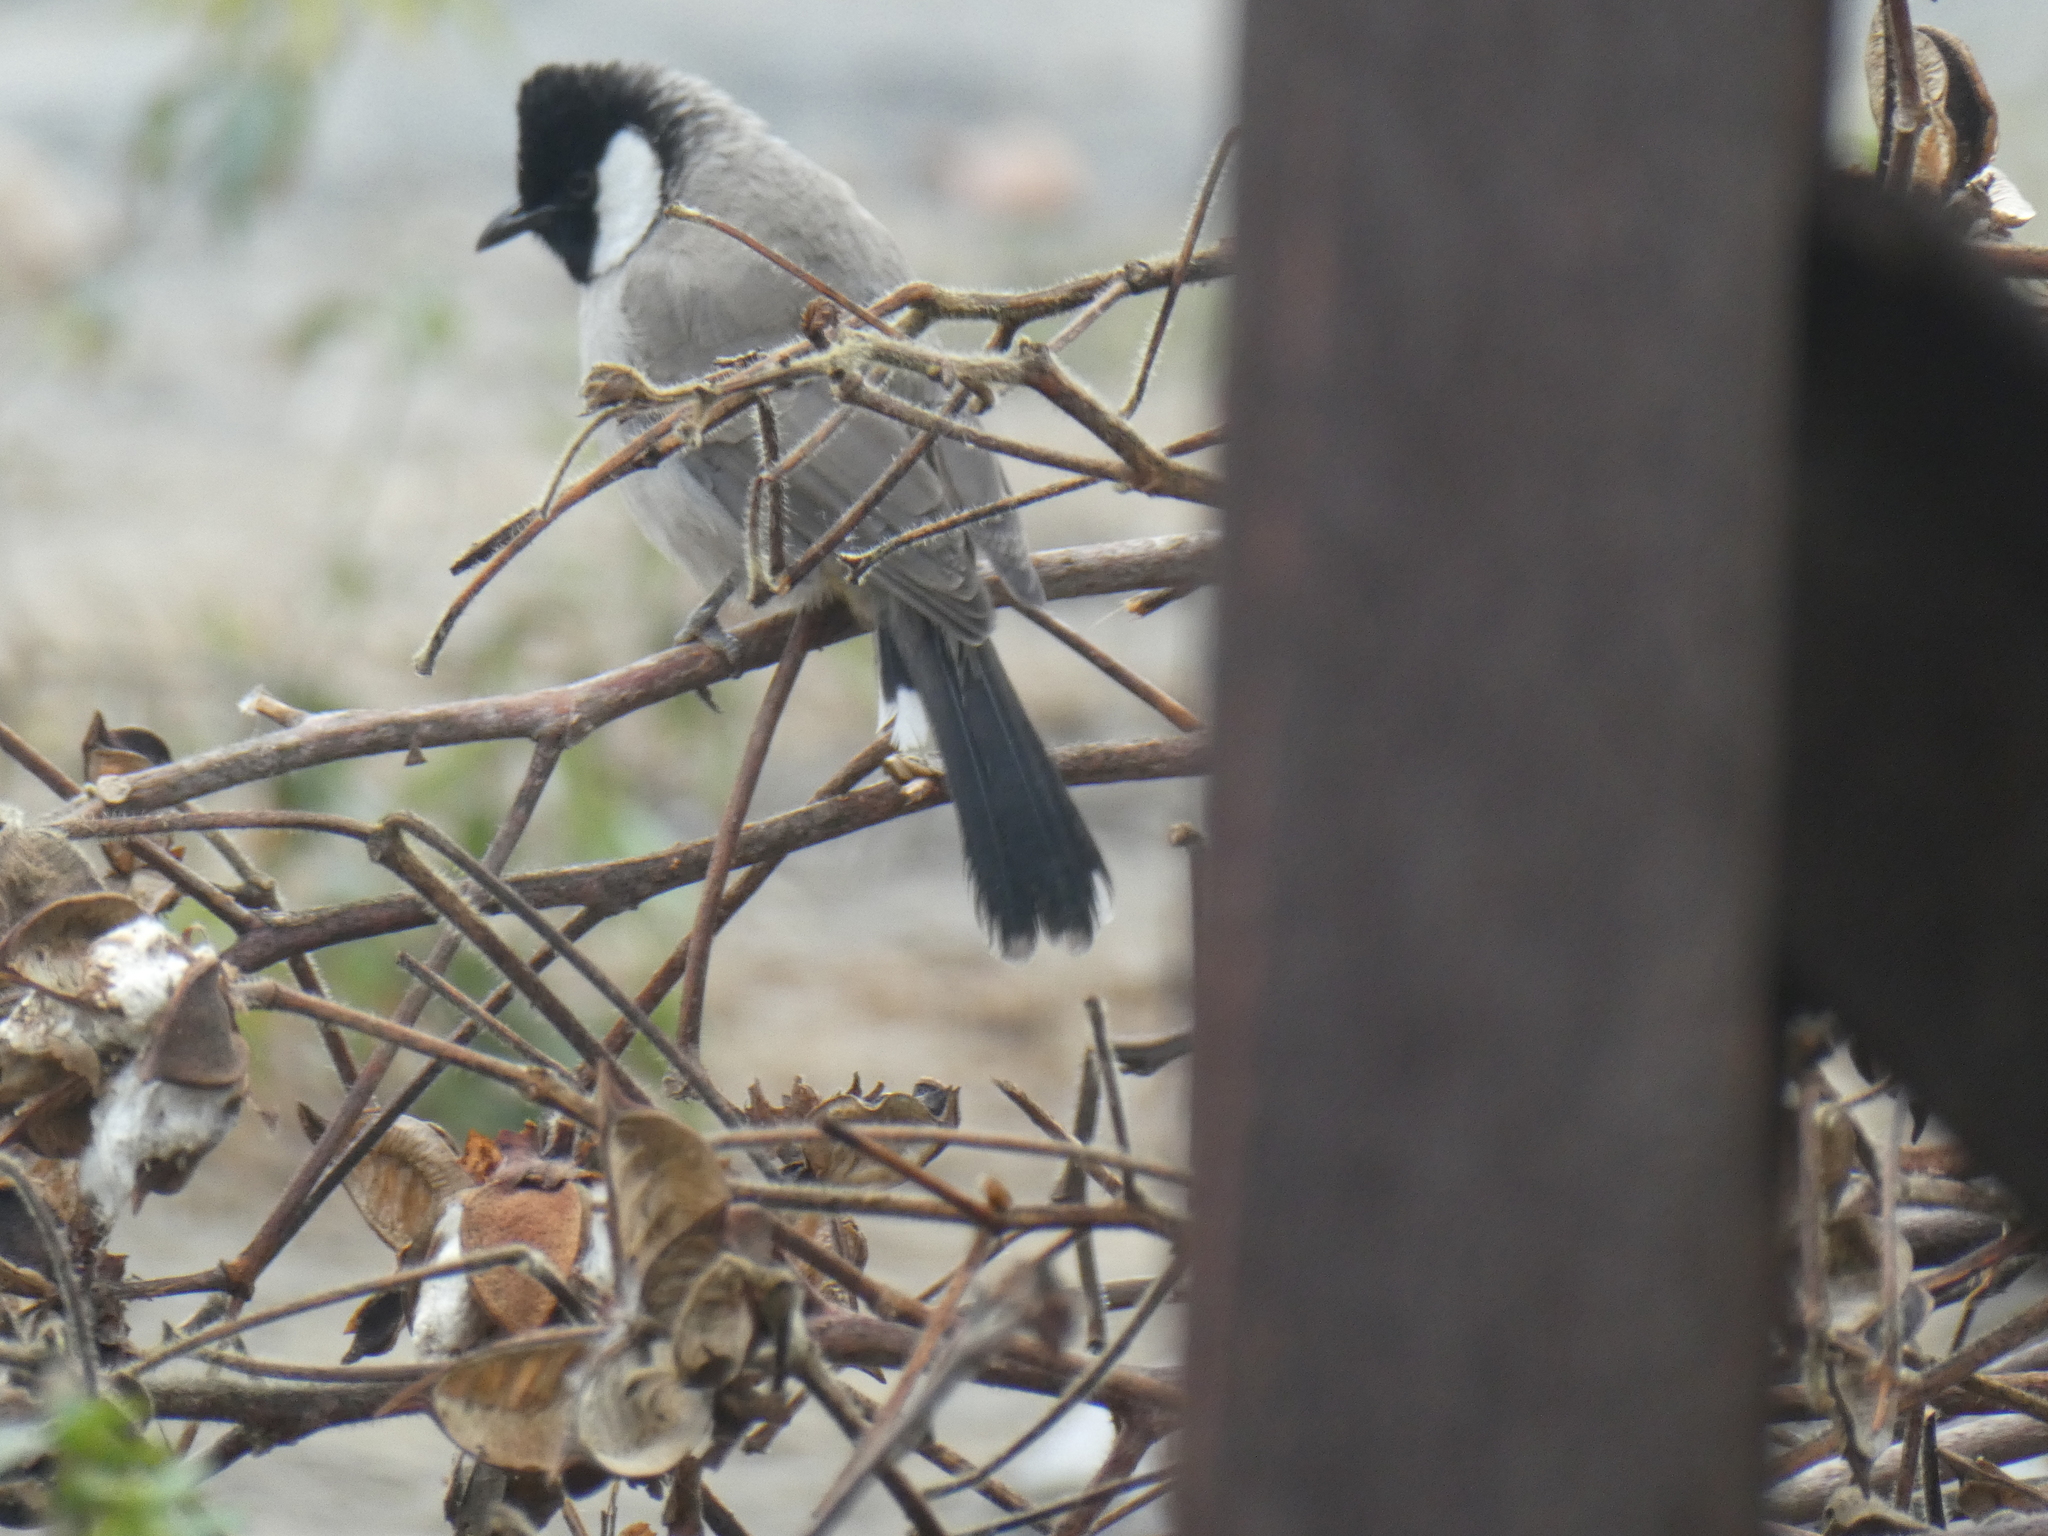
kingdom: Animalia
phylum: Chordata
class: Aves
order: Passeriformes
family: Pycnonotidae
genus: Pycnonotus
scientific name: Pycnonotus leucotis
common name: White-eared bulbul
